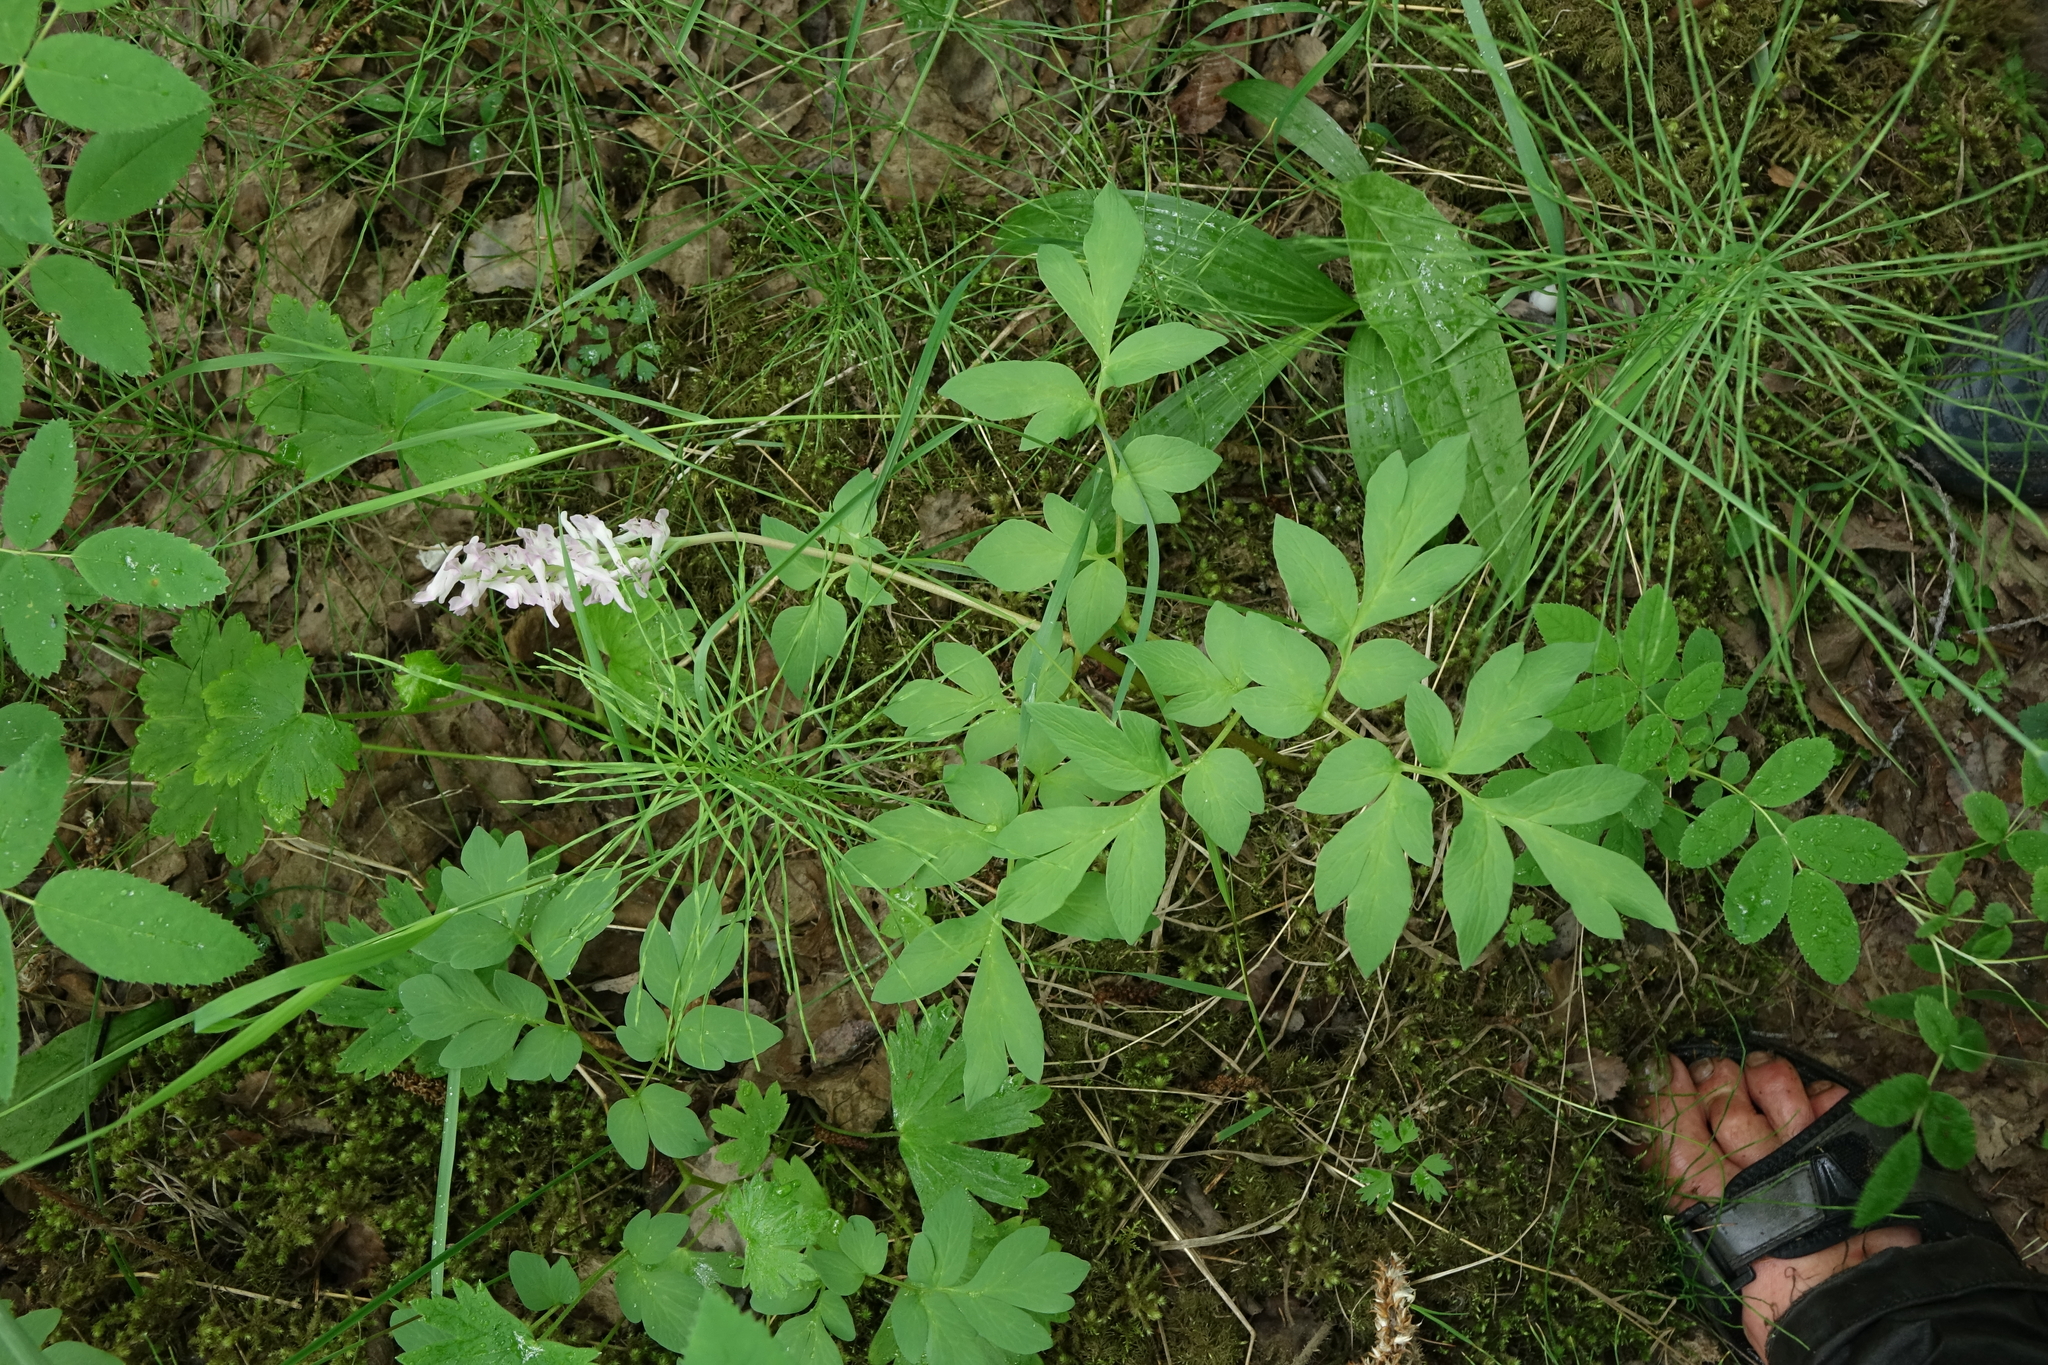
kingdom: Plantae
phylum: Tracheophyta
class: Magnoliopsida
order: Ranunculales
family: Papaveraceae
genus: Corydalis
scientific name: Corydalis paeoniifolia
